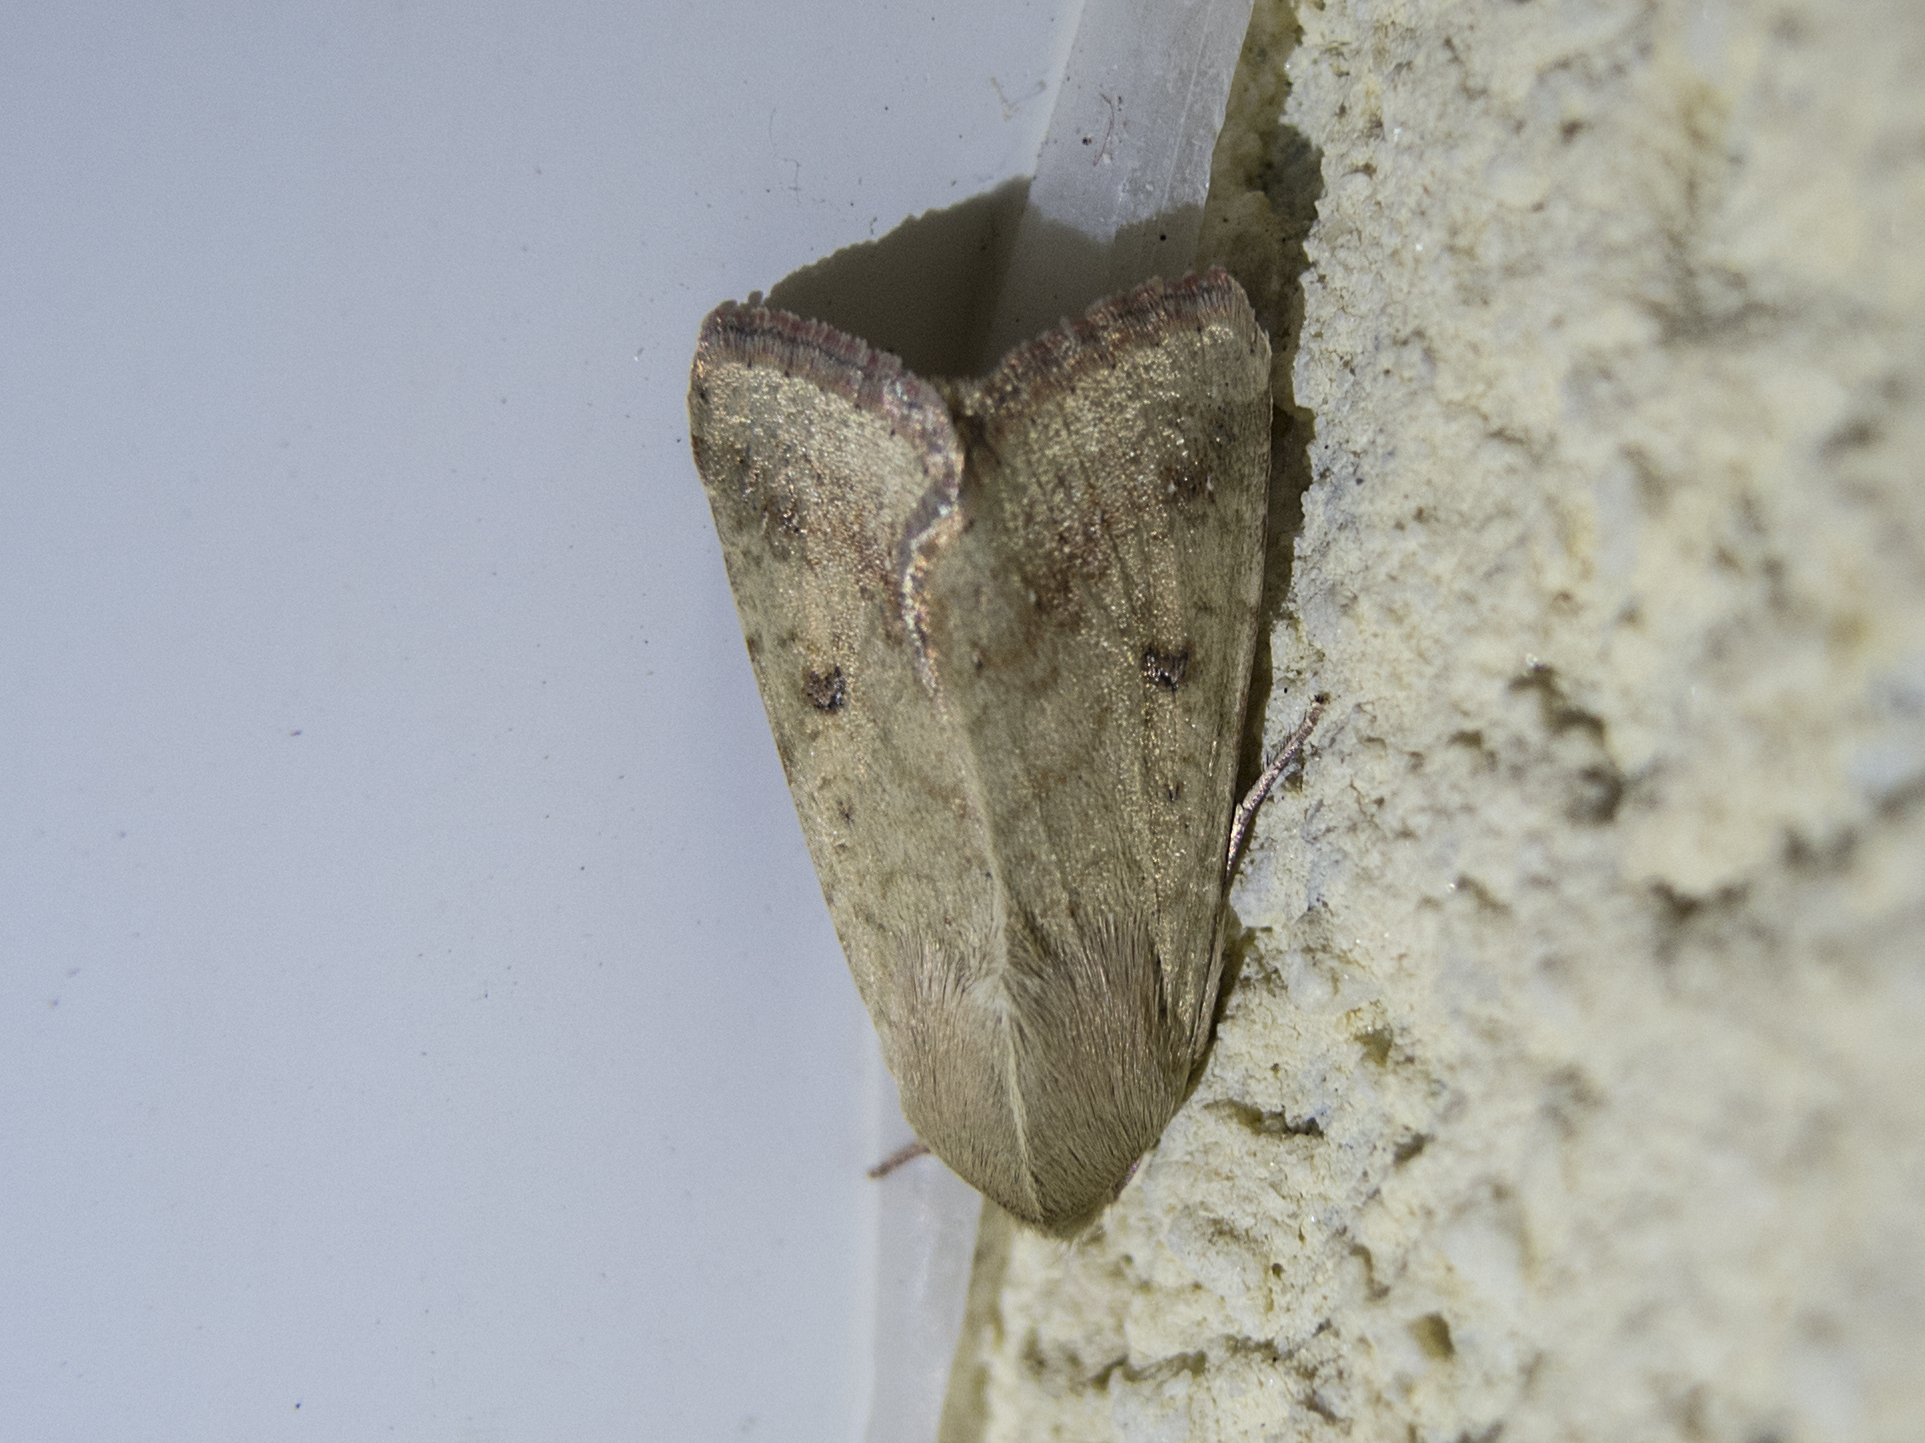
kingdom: Animalia
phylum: Arthropoda
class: Insecta
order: Lepidoptera
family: Noctuidae
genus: Helicoverpa
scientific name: Helicoverpa armigera
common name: Cotton bollworm
